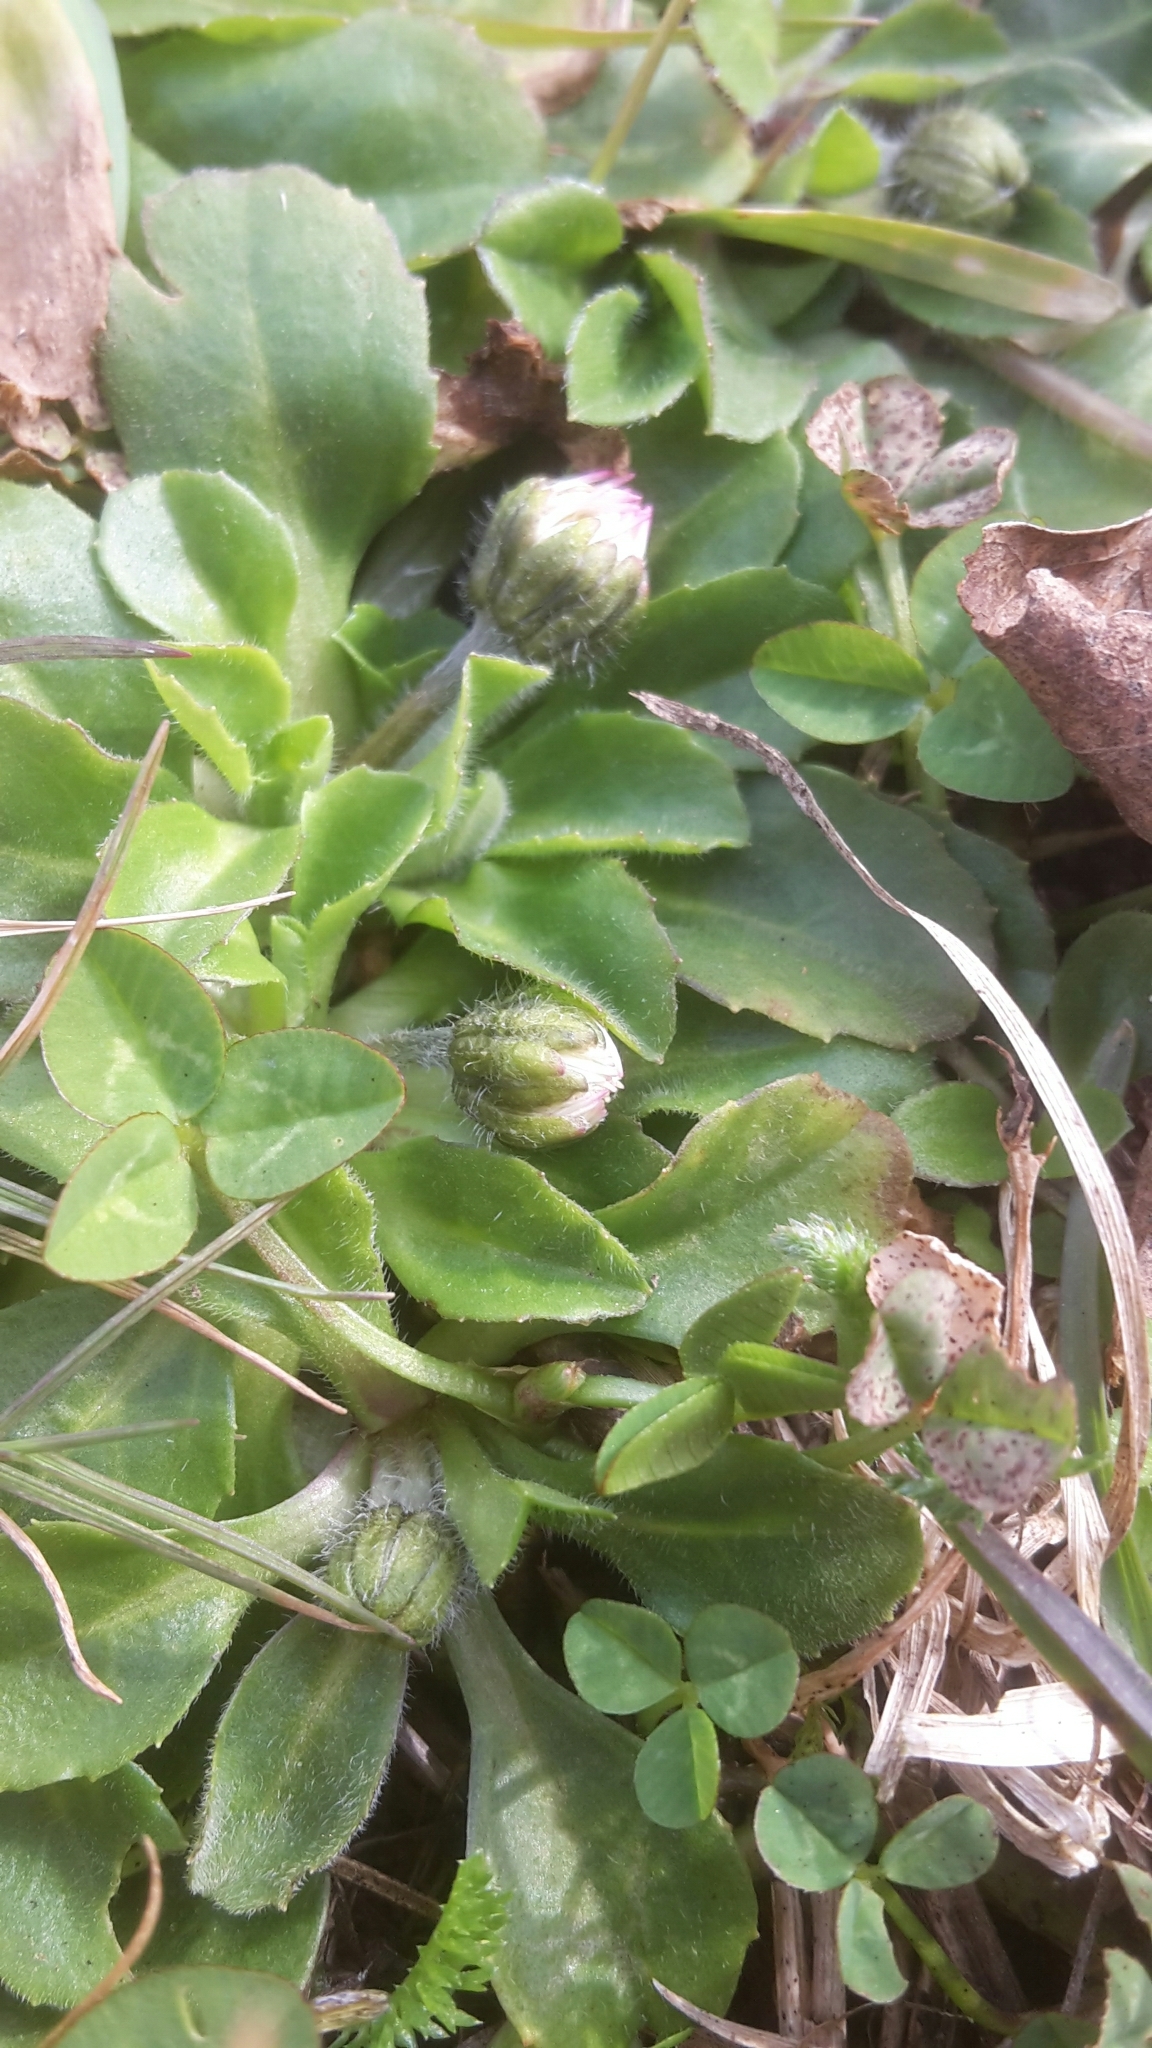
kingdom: Plantae
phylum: Tracheophyta
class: Magnoliopsida
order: Asterales
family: Asteraceae
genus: Bellis
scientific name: Bellis perennis
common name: Lawndaisy
